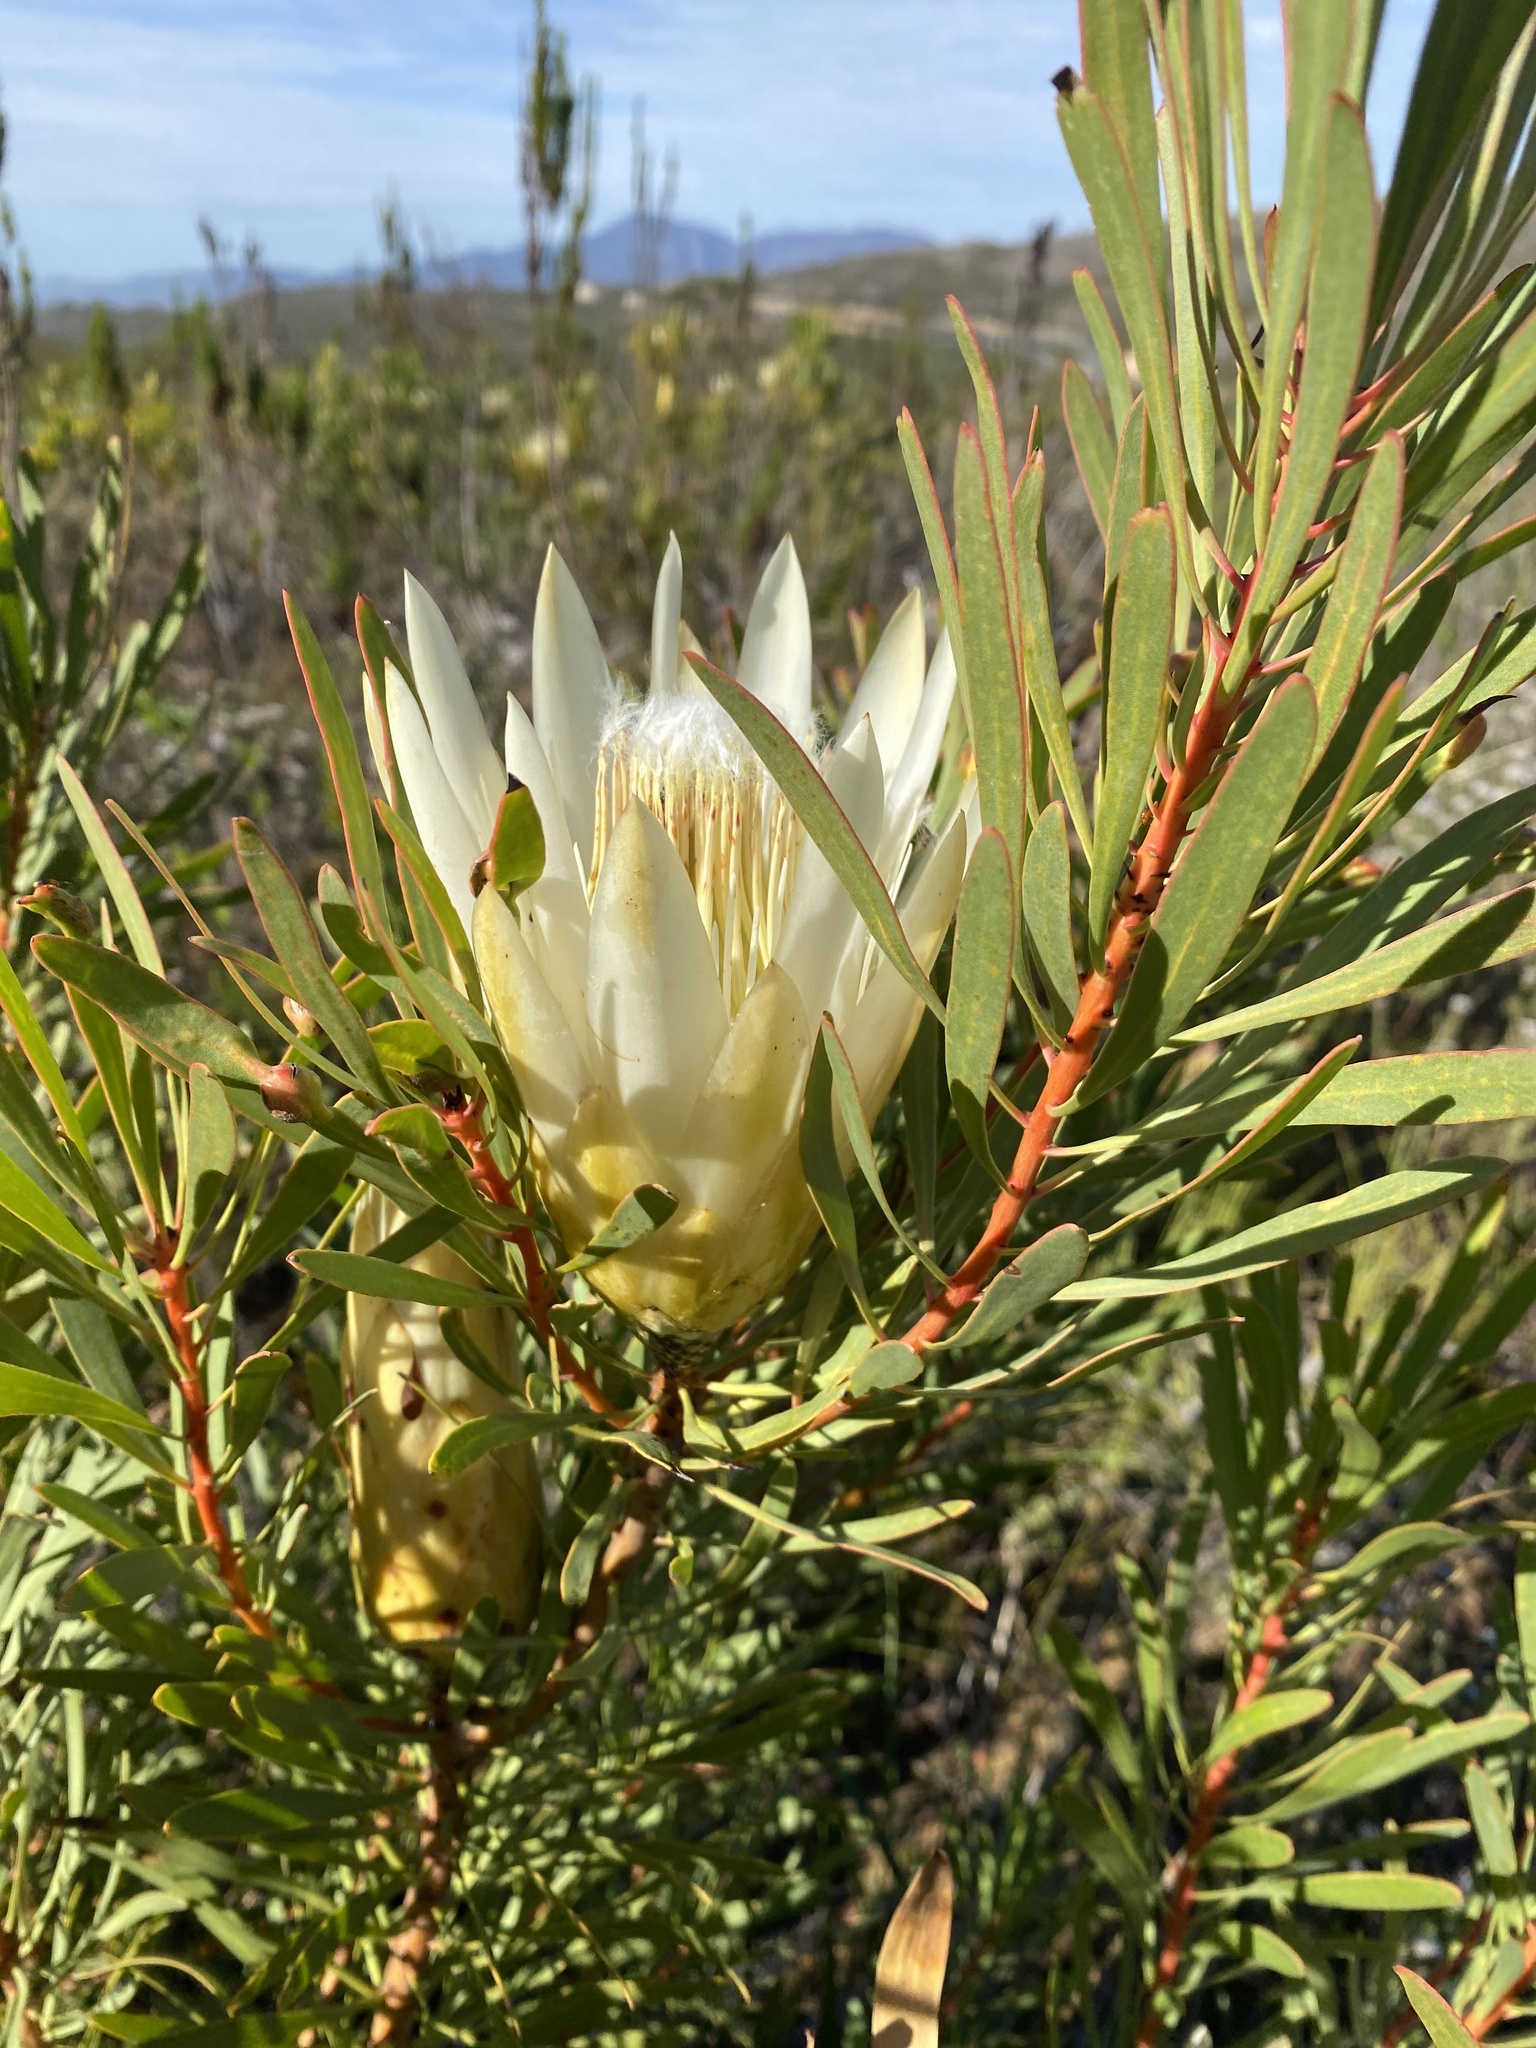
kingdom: Plantae
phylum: Tracheophyta
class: Magnoliopsida
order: Proteales
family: Proteaceae
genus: Protea
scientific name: Protea repens
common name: Sugarbush
